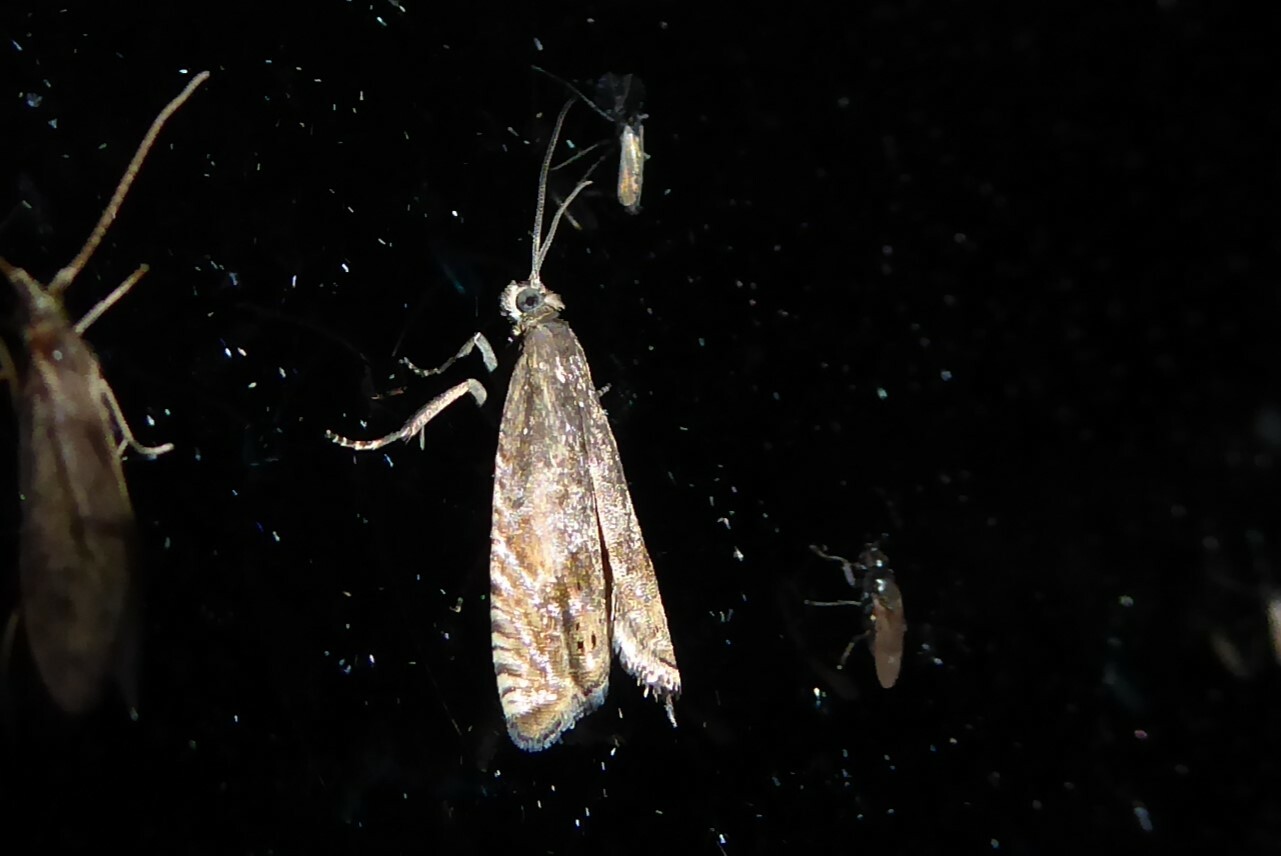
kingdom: Animalia
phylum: Arthropoda
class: Insecta
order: Lepidoptera
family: Tortricidae
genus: Cydia
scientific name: Cydia succedana
